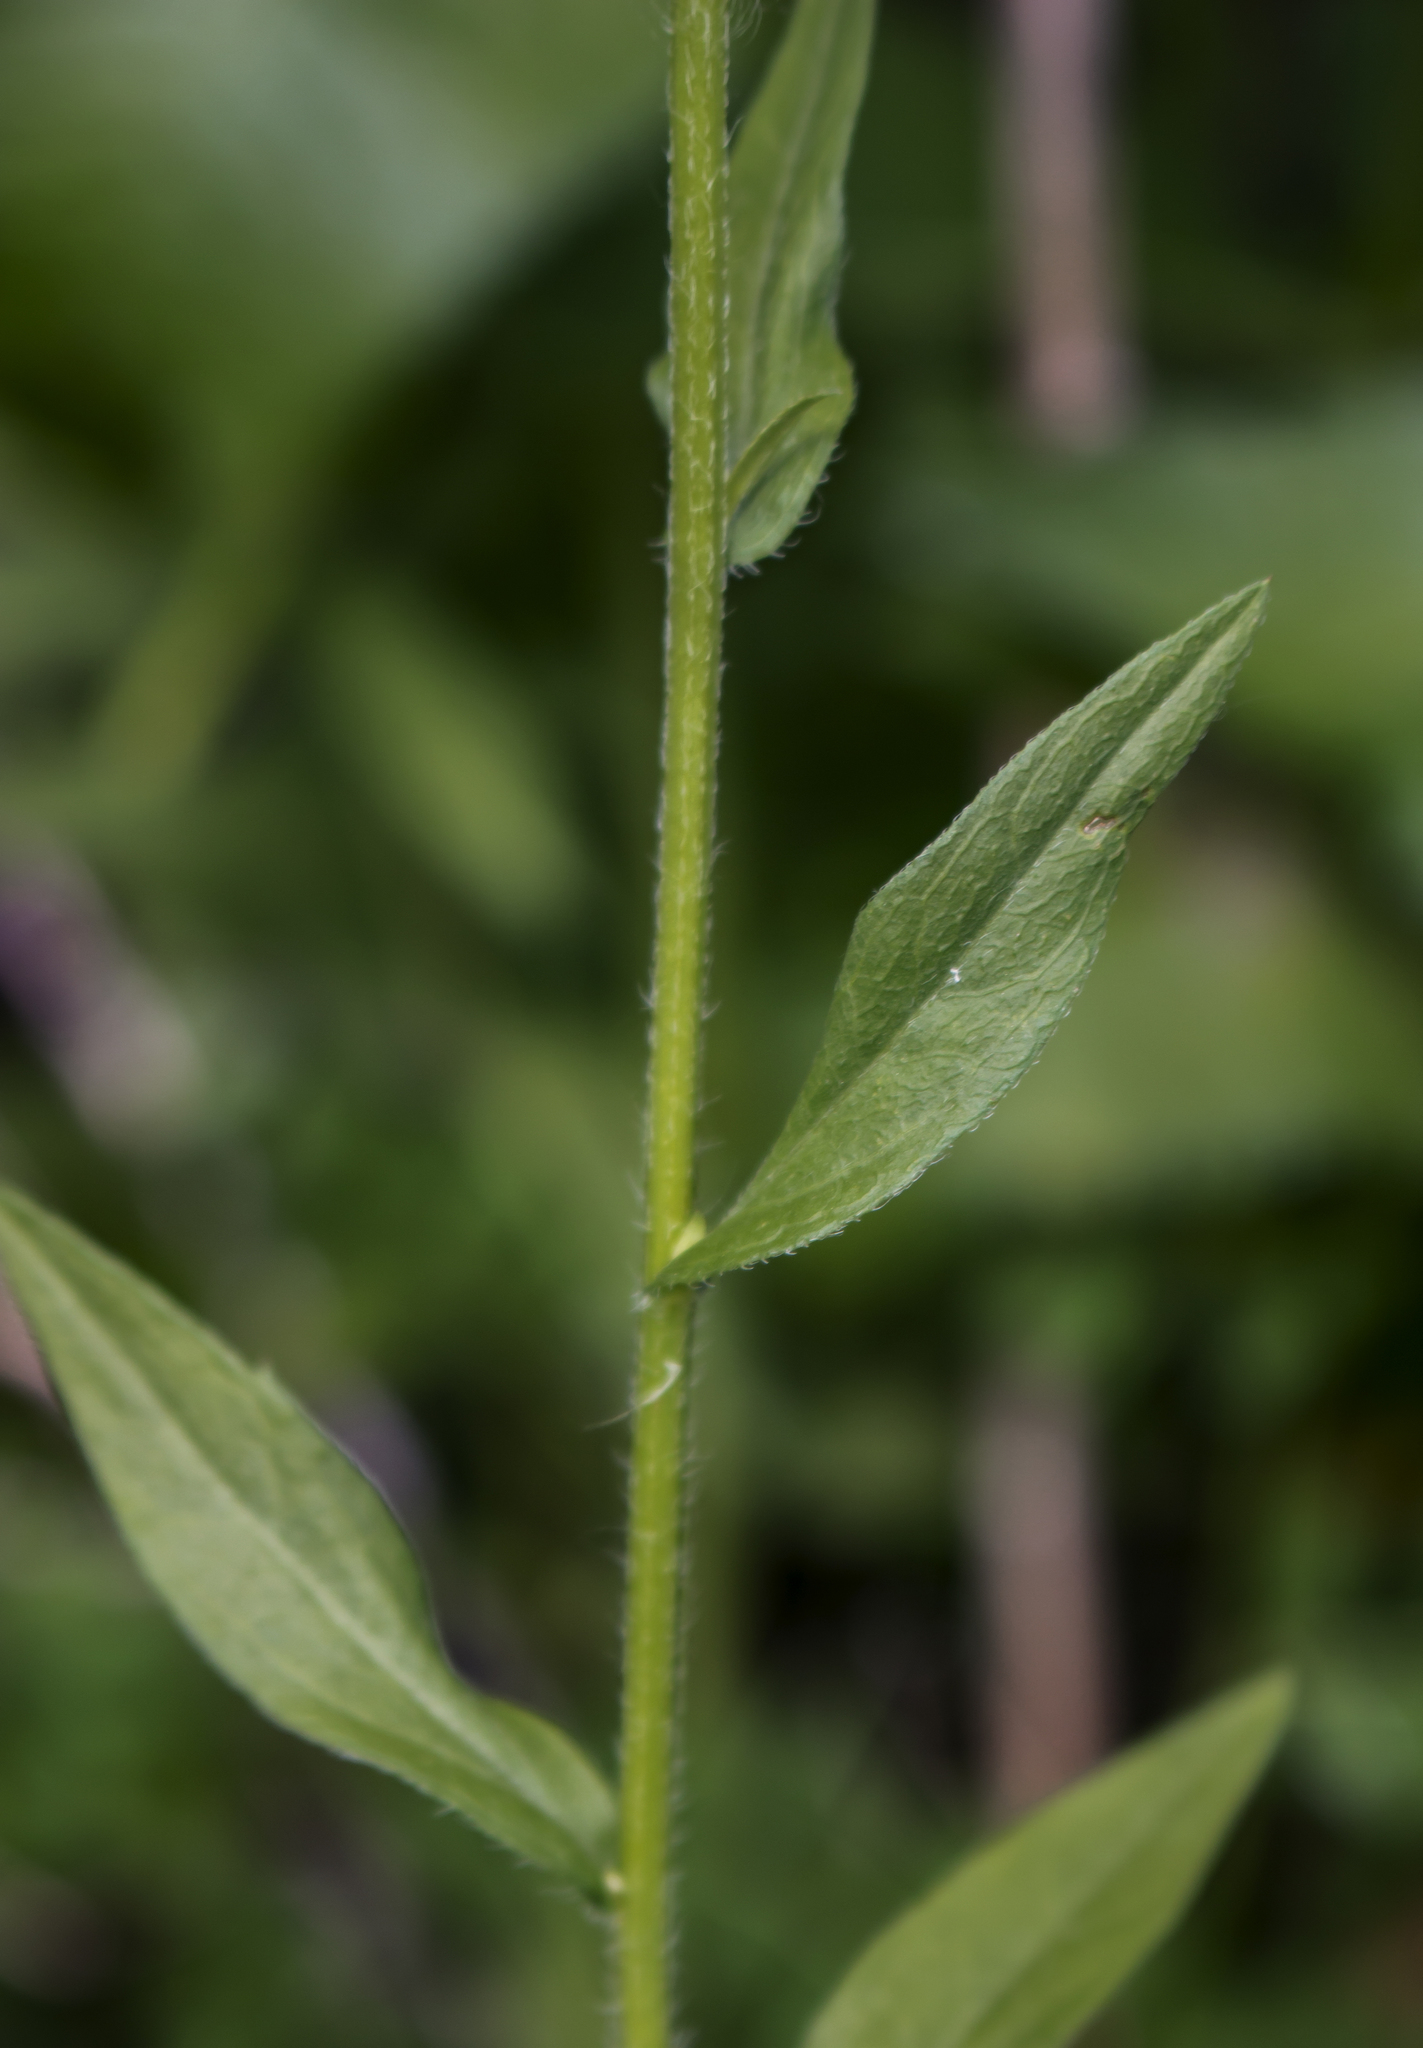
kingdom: Plantae
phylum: Tracheophyta
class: Magnoliopsida
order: Asterales
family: Asteraceae
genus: Erigeron
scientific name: Erigeron annuus
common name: Tall fleabane
